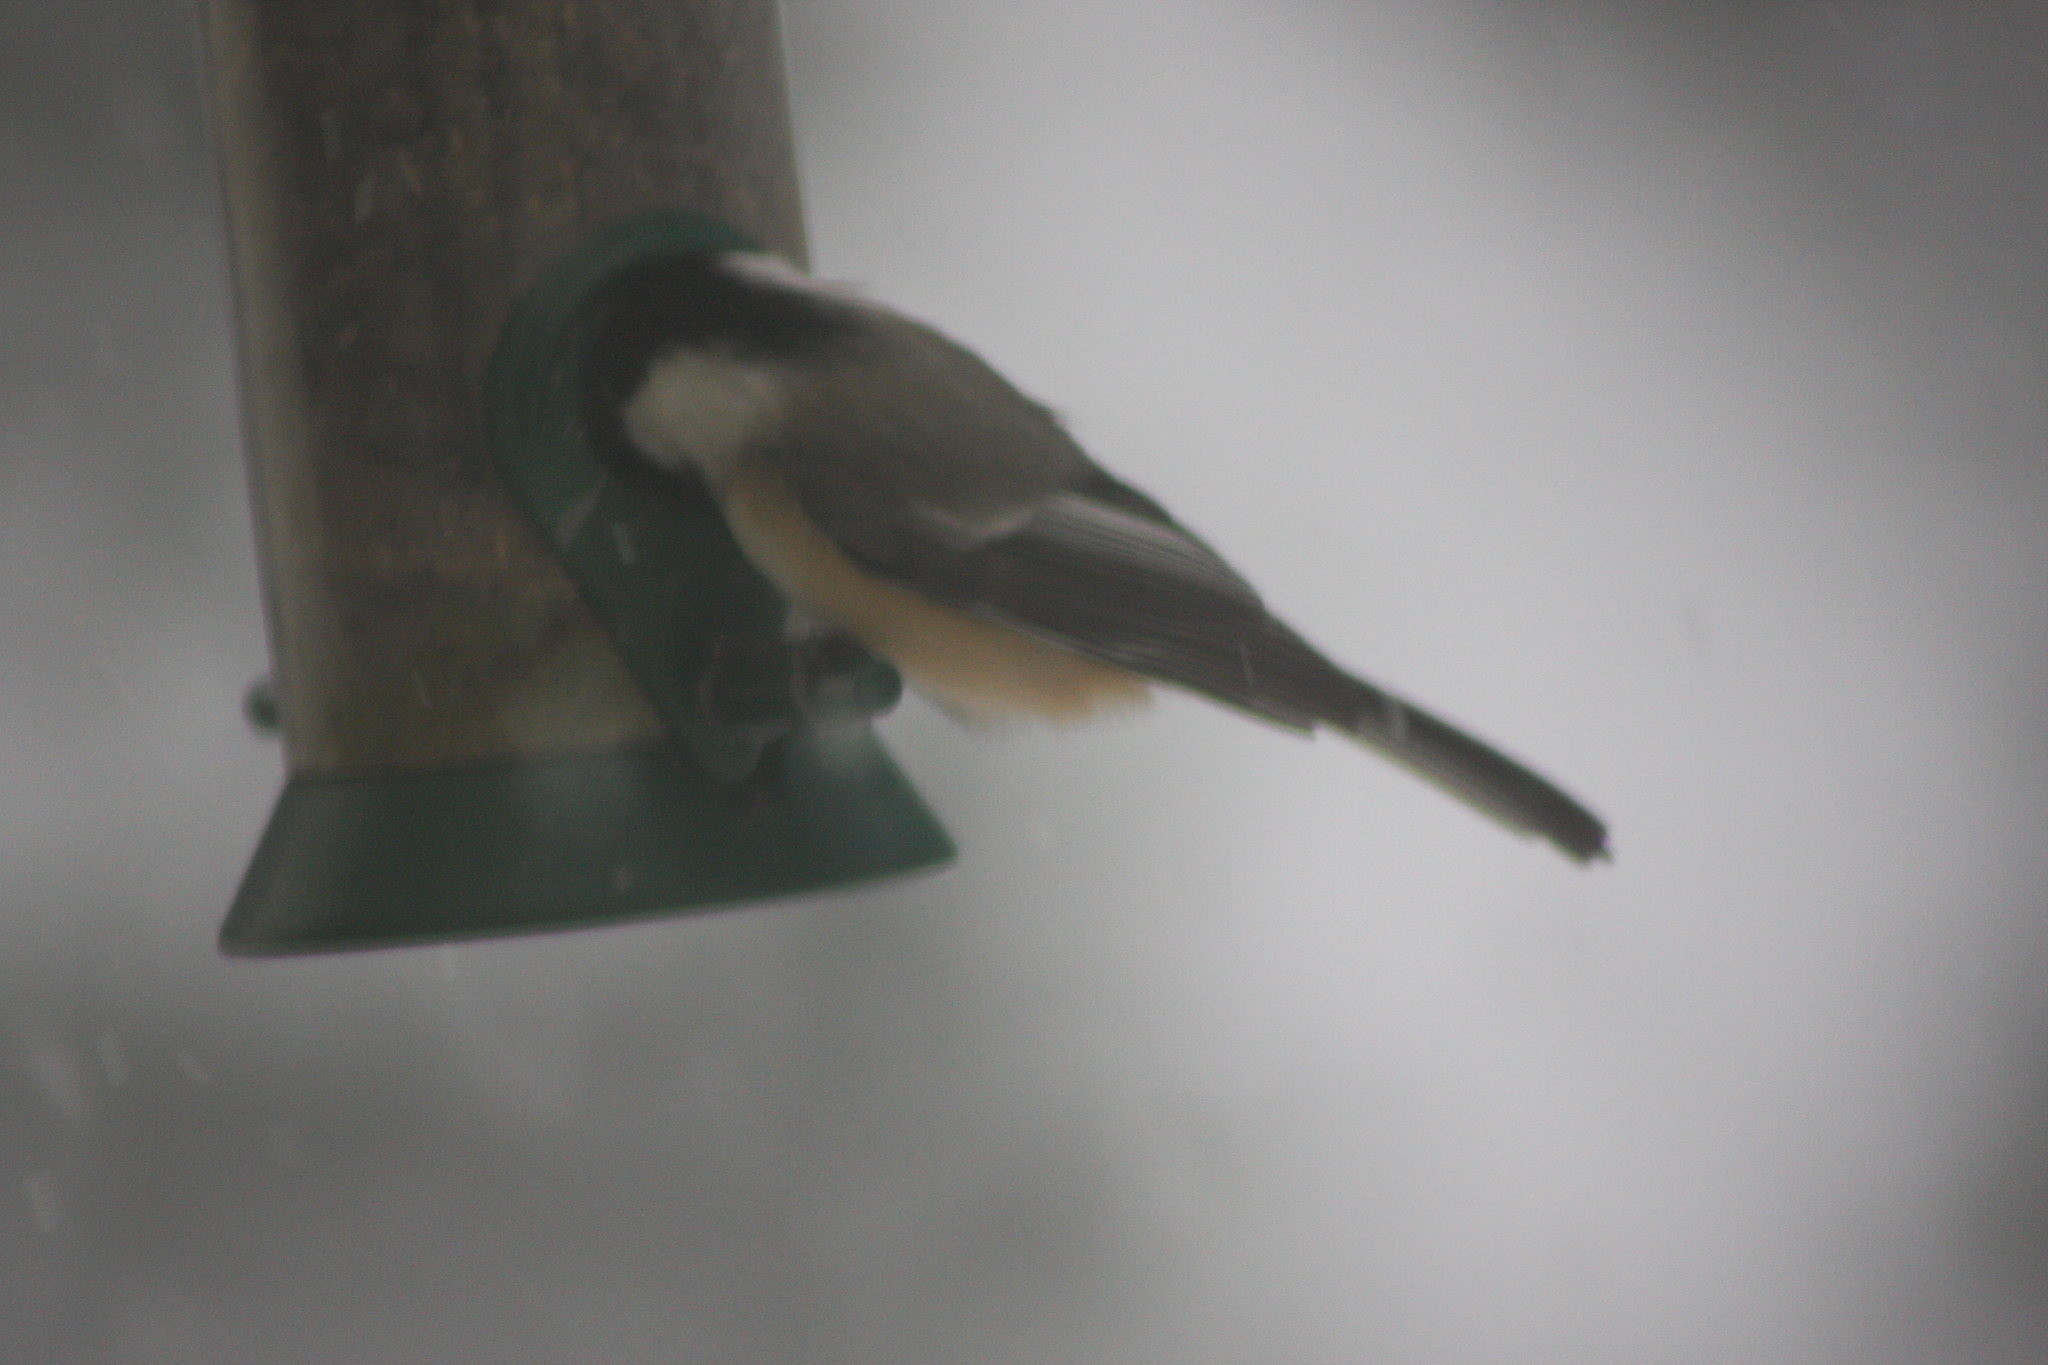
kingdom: Animalia
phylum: Chordata
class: Aves
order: Passeriformes
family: Paridae
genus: Poecile
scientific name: Poecile atricapillus
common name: Black-capped chickadee
